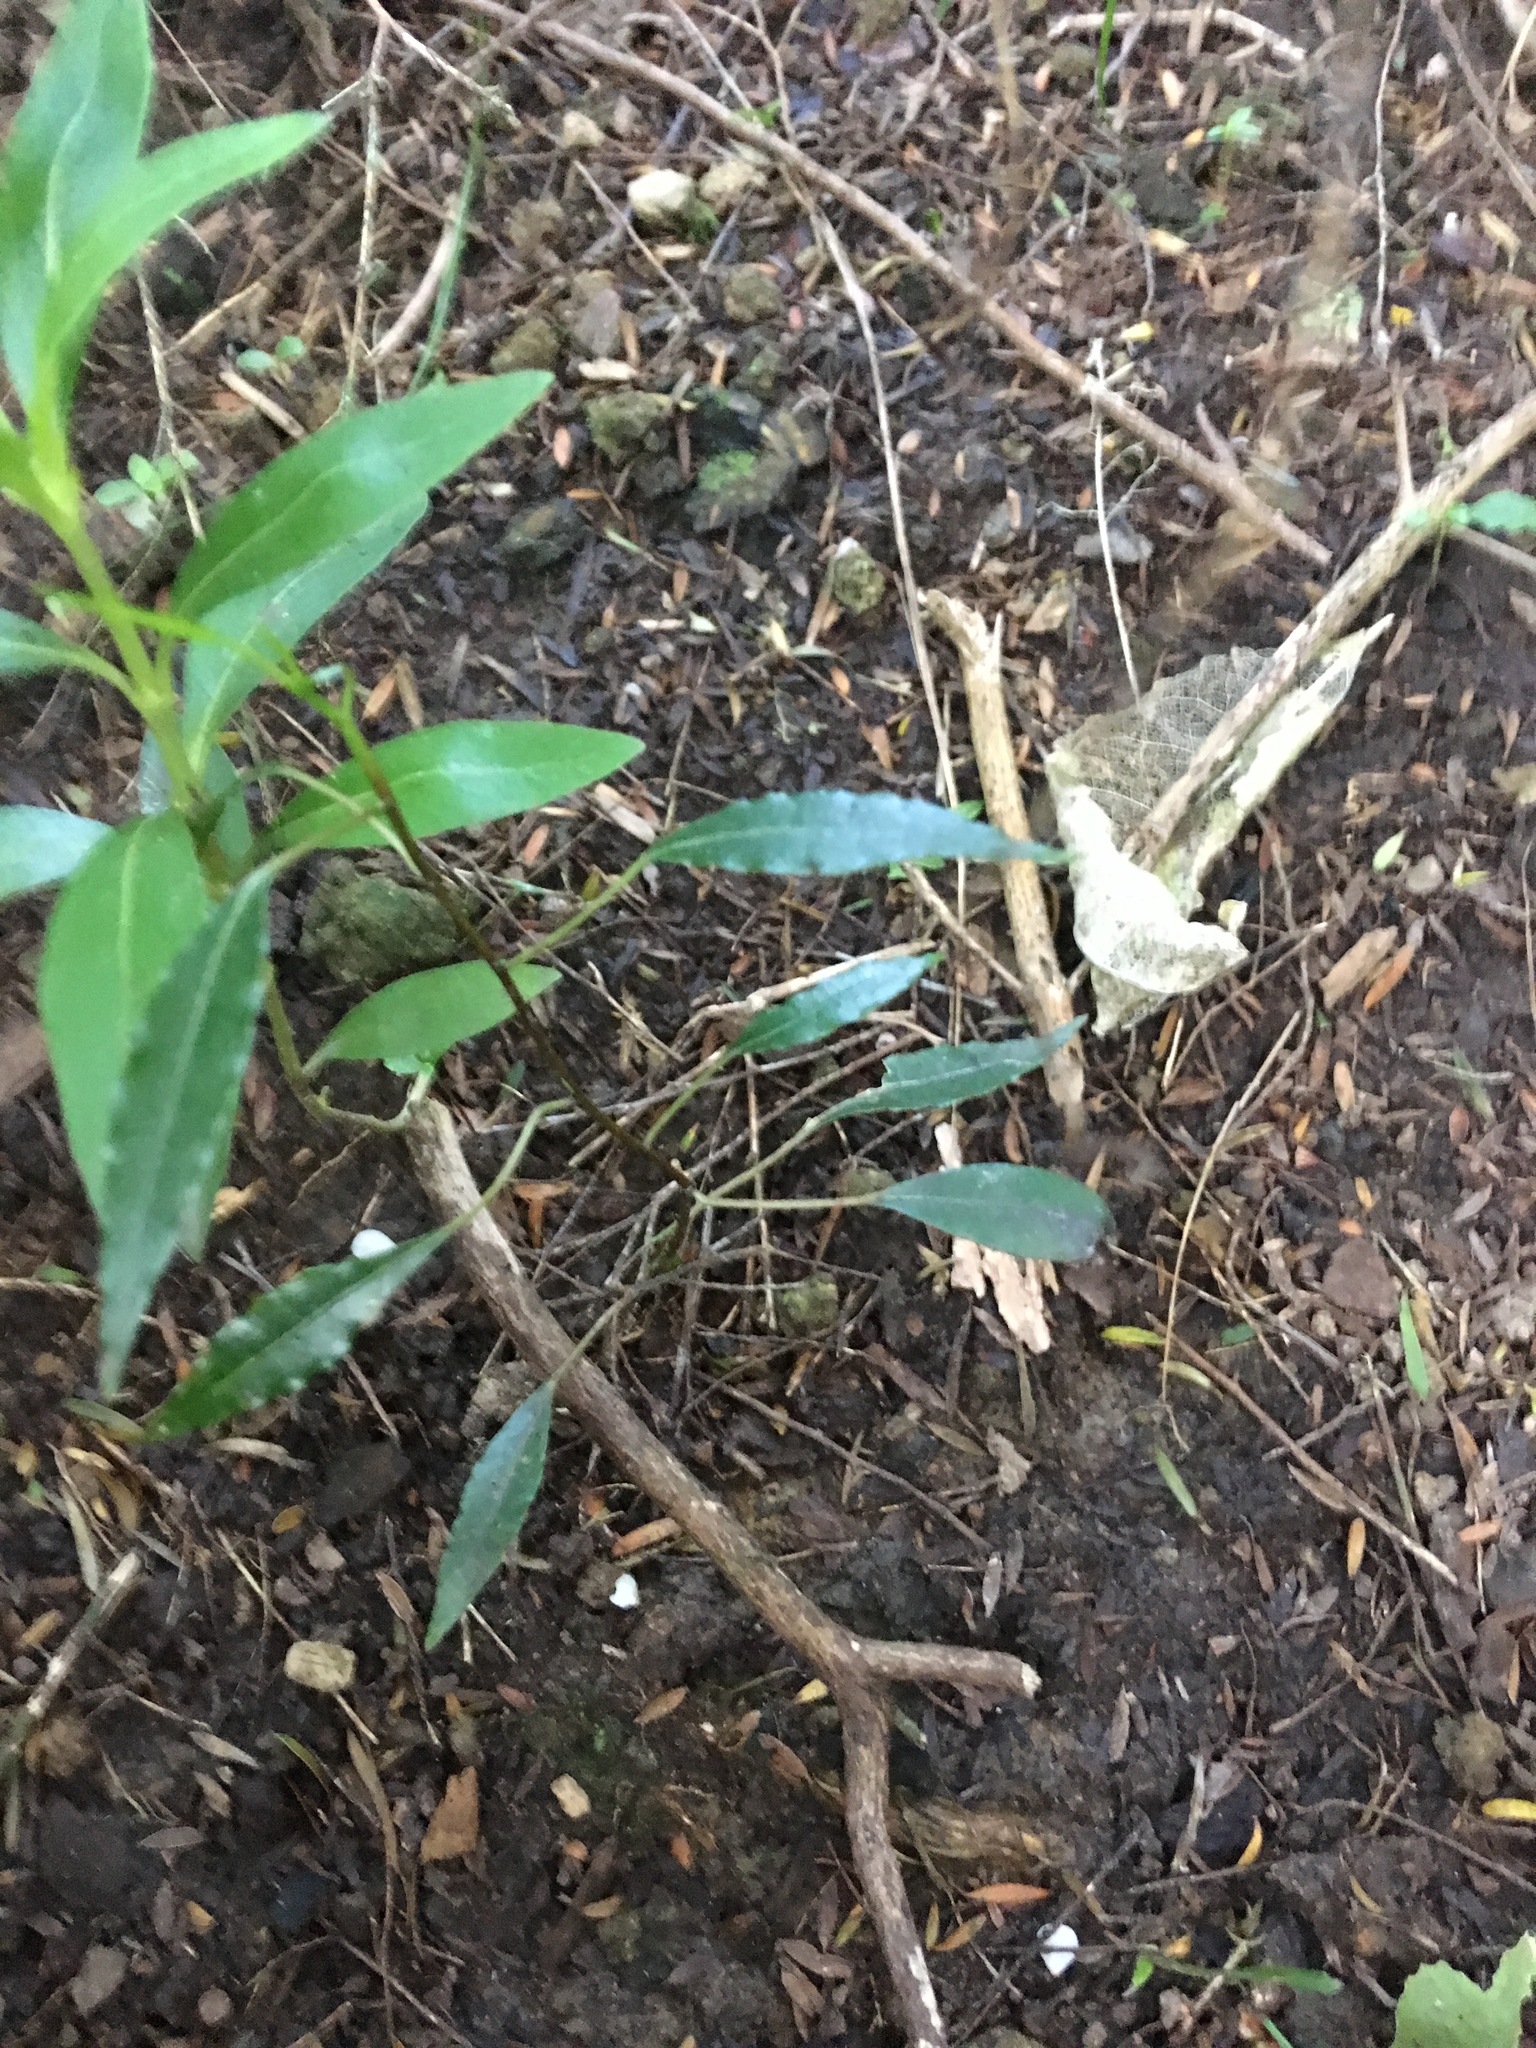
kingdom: Plantae
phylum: Tracheophyta
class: Magnoliopsida
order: Malpighiales
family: Passifloraceae
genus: Passiflora
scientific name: Passiflora tetrandra
